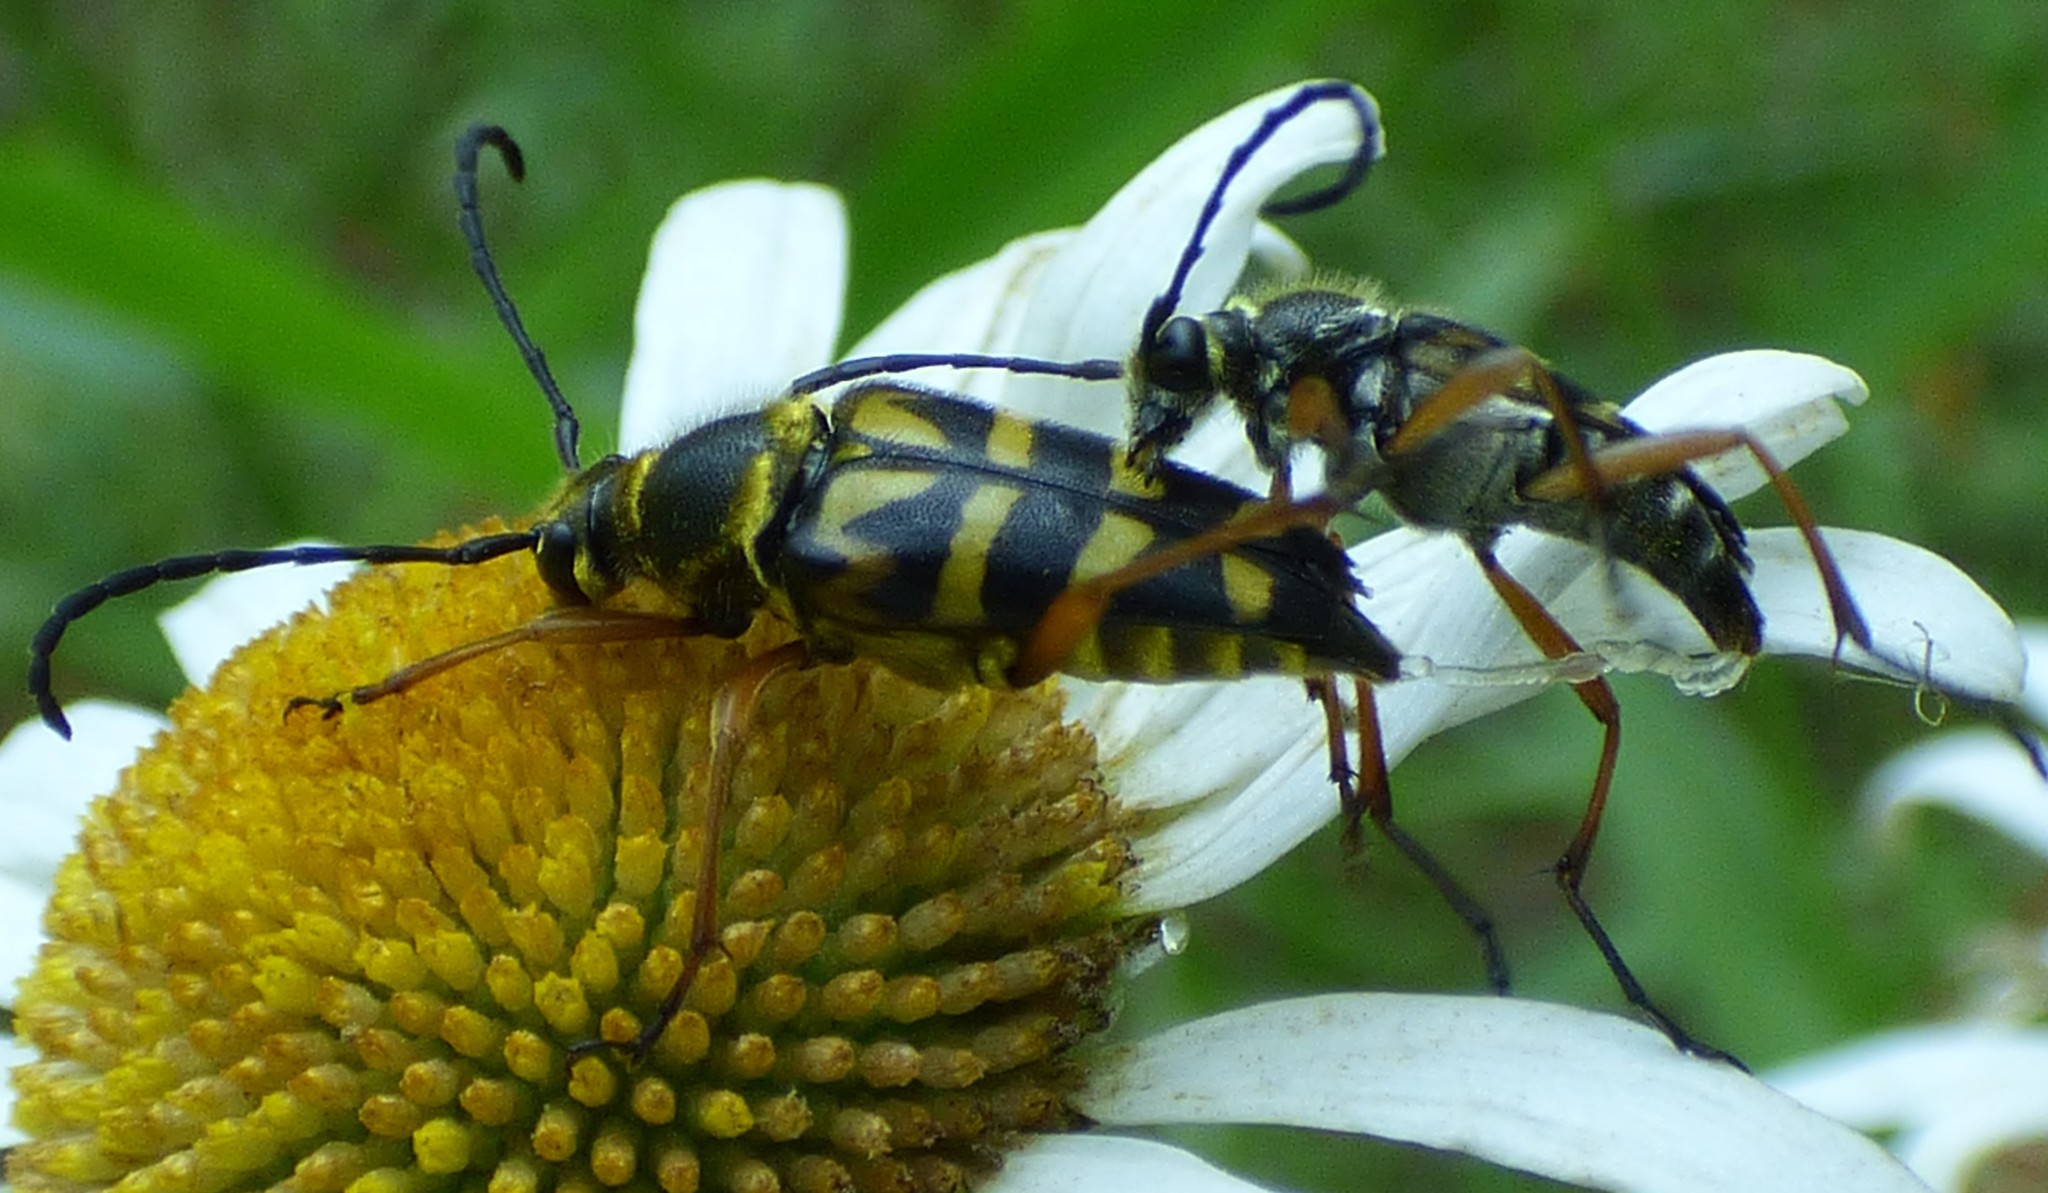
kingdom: Animalia
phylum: Arthropoda
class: Insecta
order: Coleoptera
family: Cerambycidae
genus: Typocerus
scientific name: Typocerus zebra
